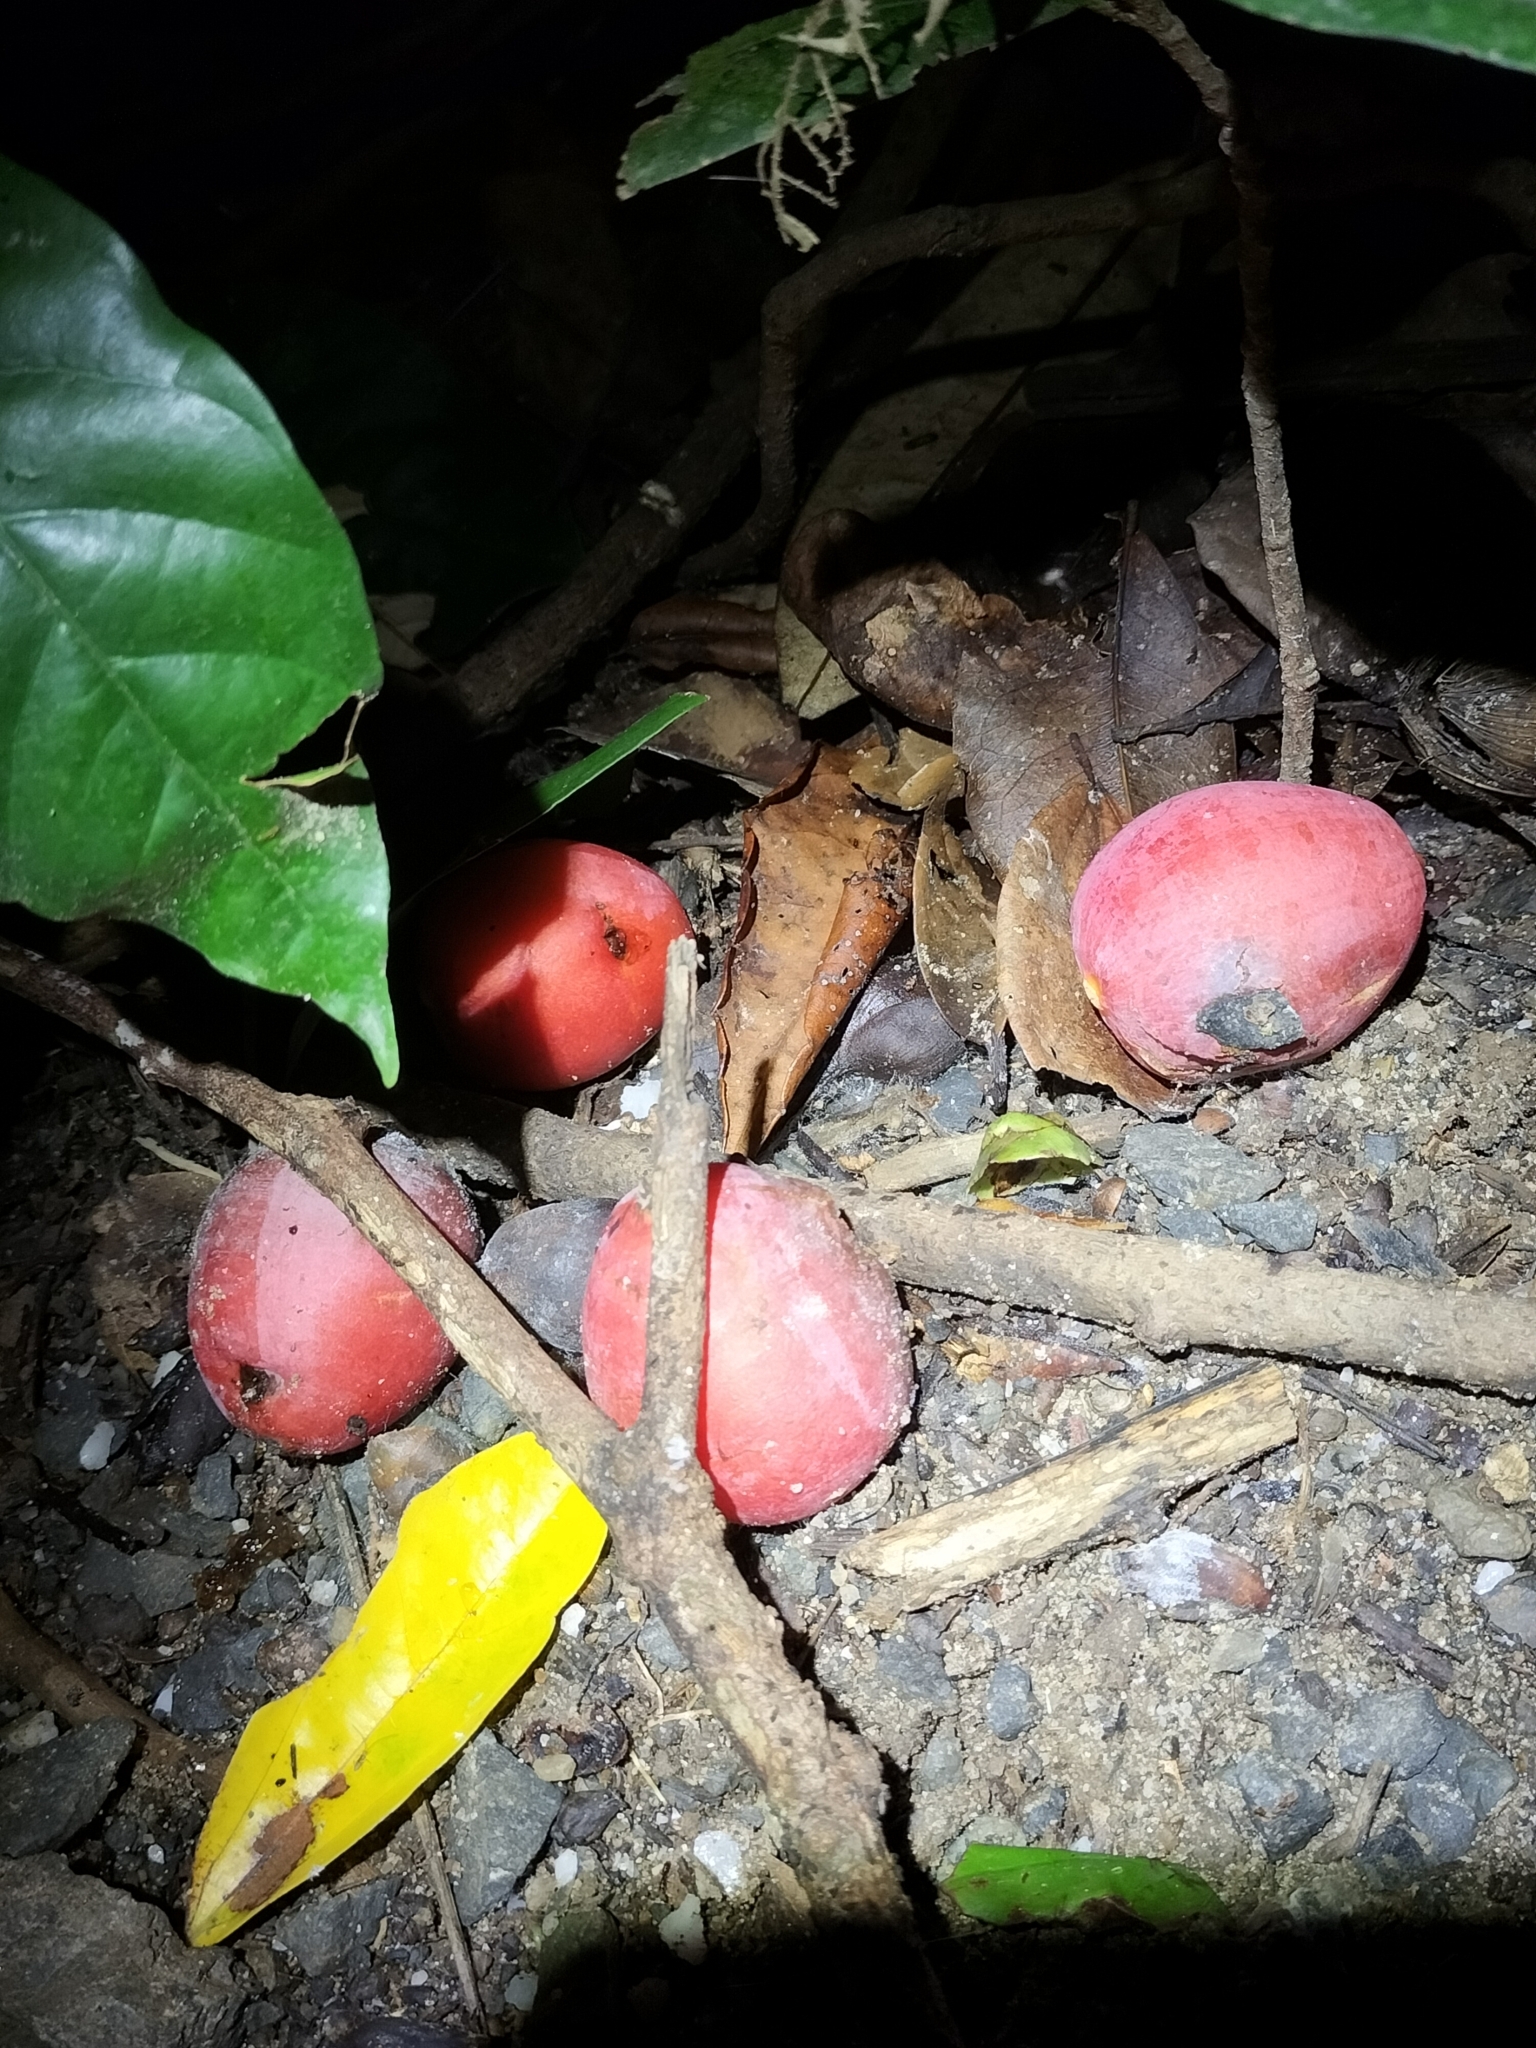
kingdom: Plantae
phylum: Tracheophyta
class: Liliopsida
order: Arecales
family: Arecaceae
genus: Normanbya
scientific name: Normanbya normanbyi
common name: Black palm
